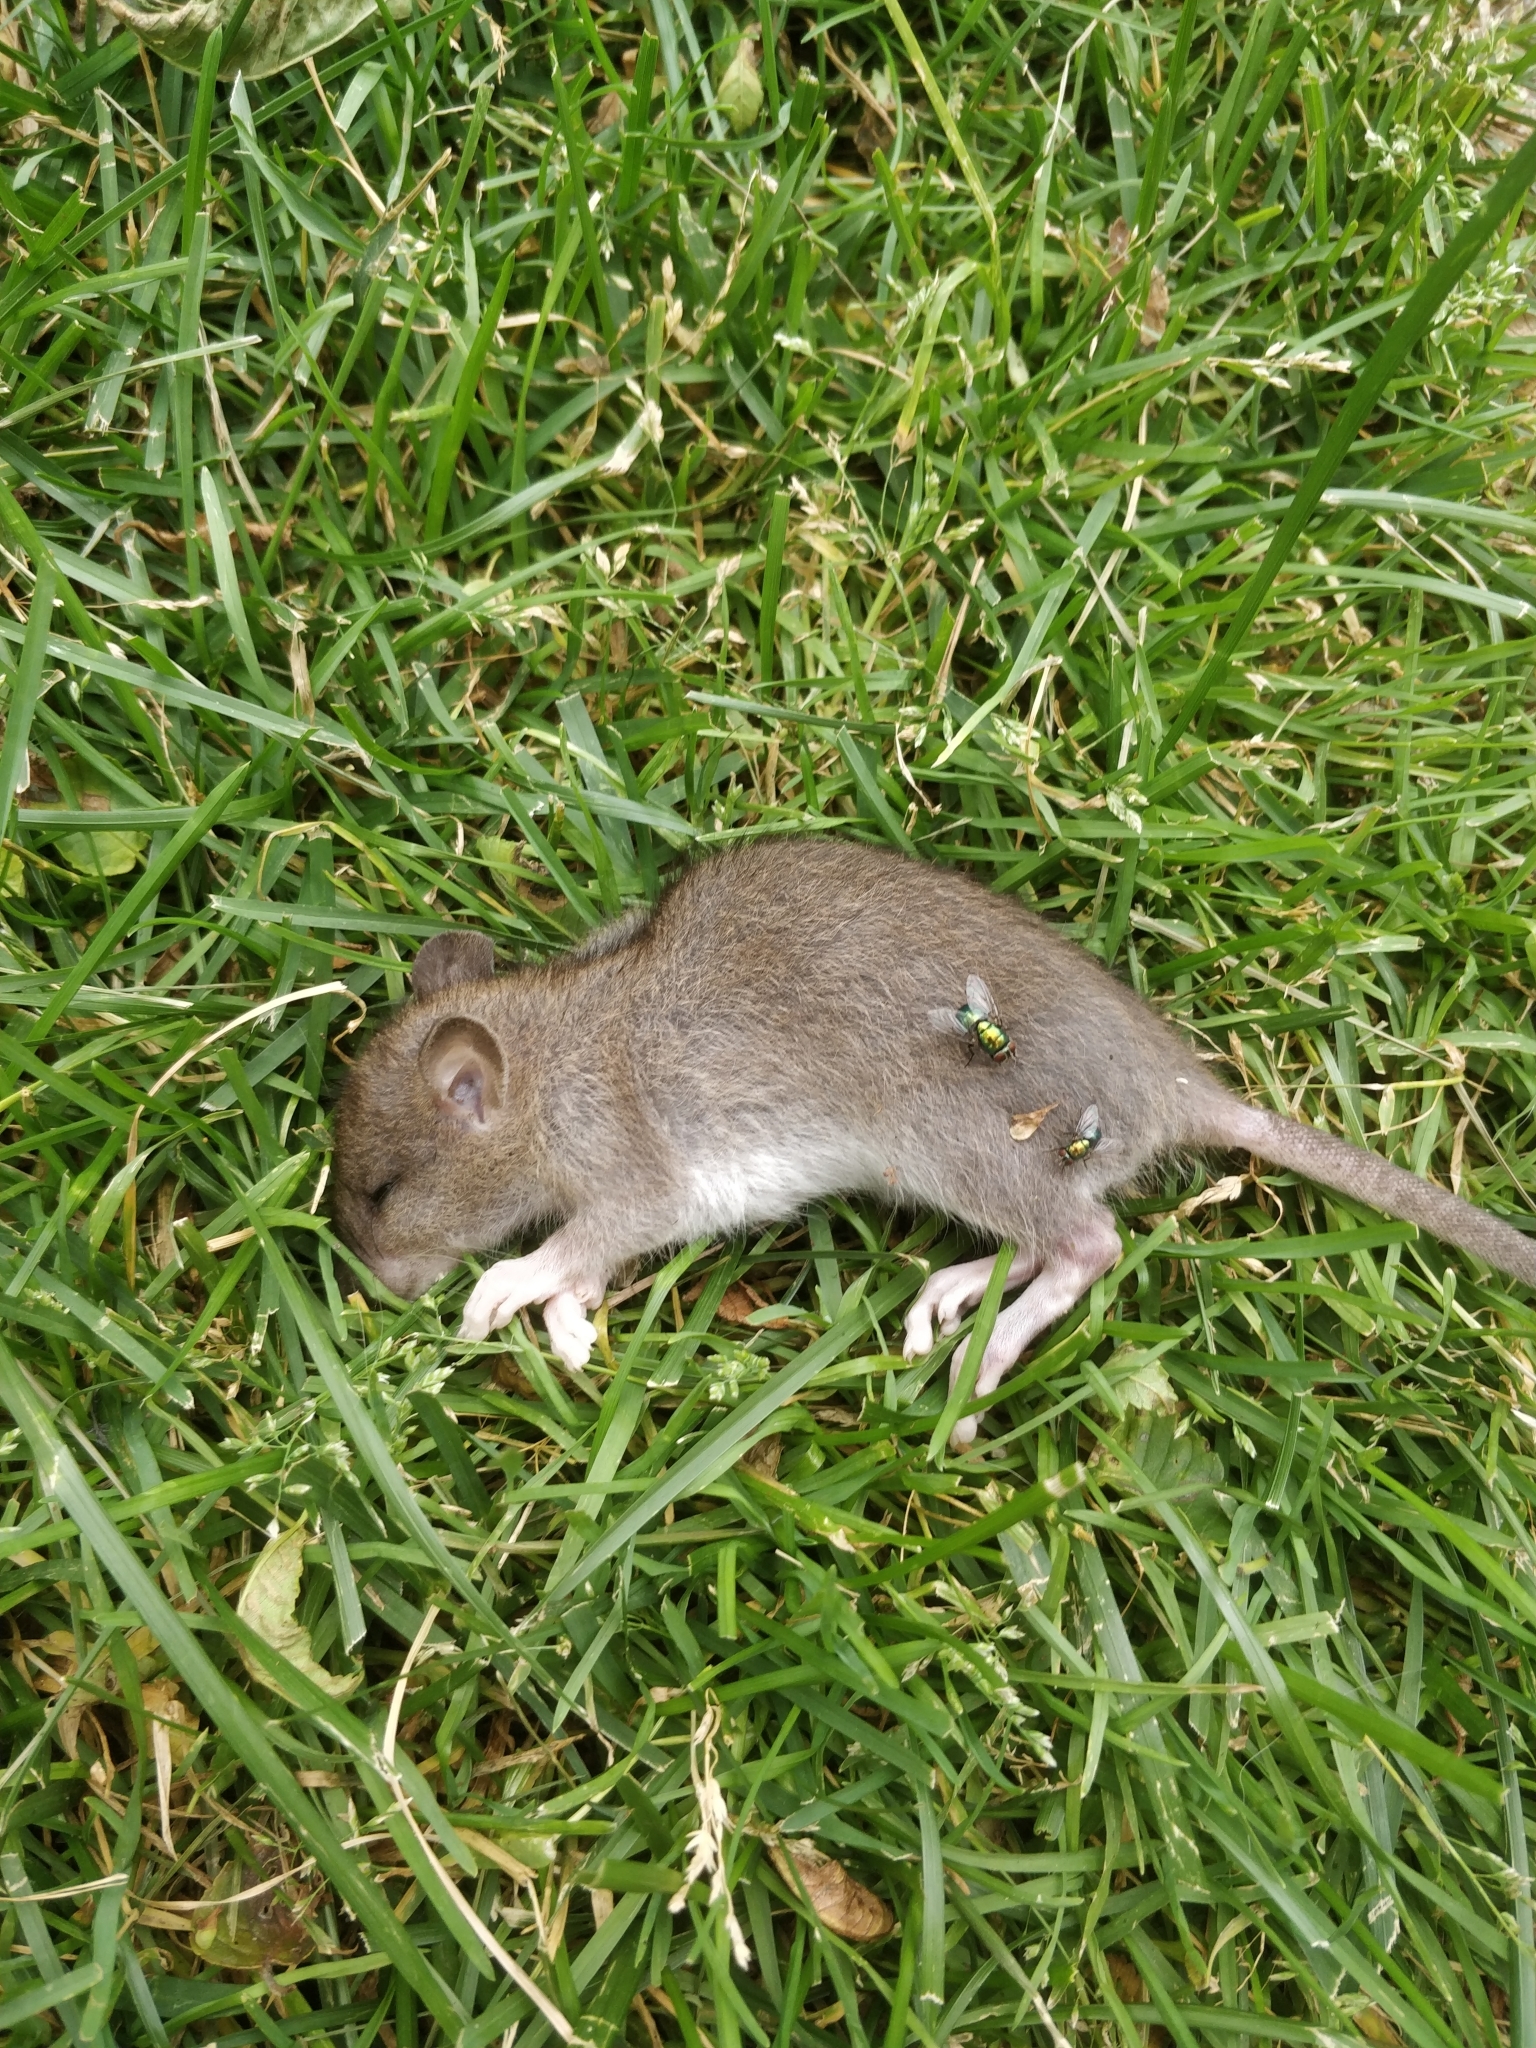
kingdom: Animalia
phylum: Chordata
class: Mammalia
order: Rodentia
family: Muridae
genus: Rattus
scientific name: Rattus norvegicus
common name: Brown rat
